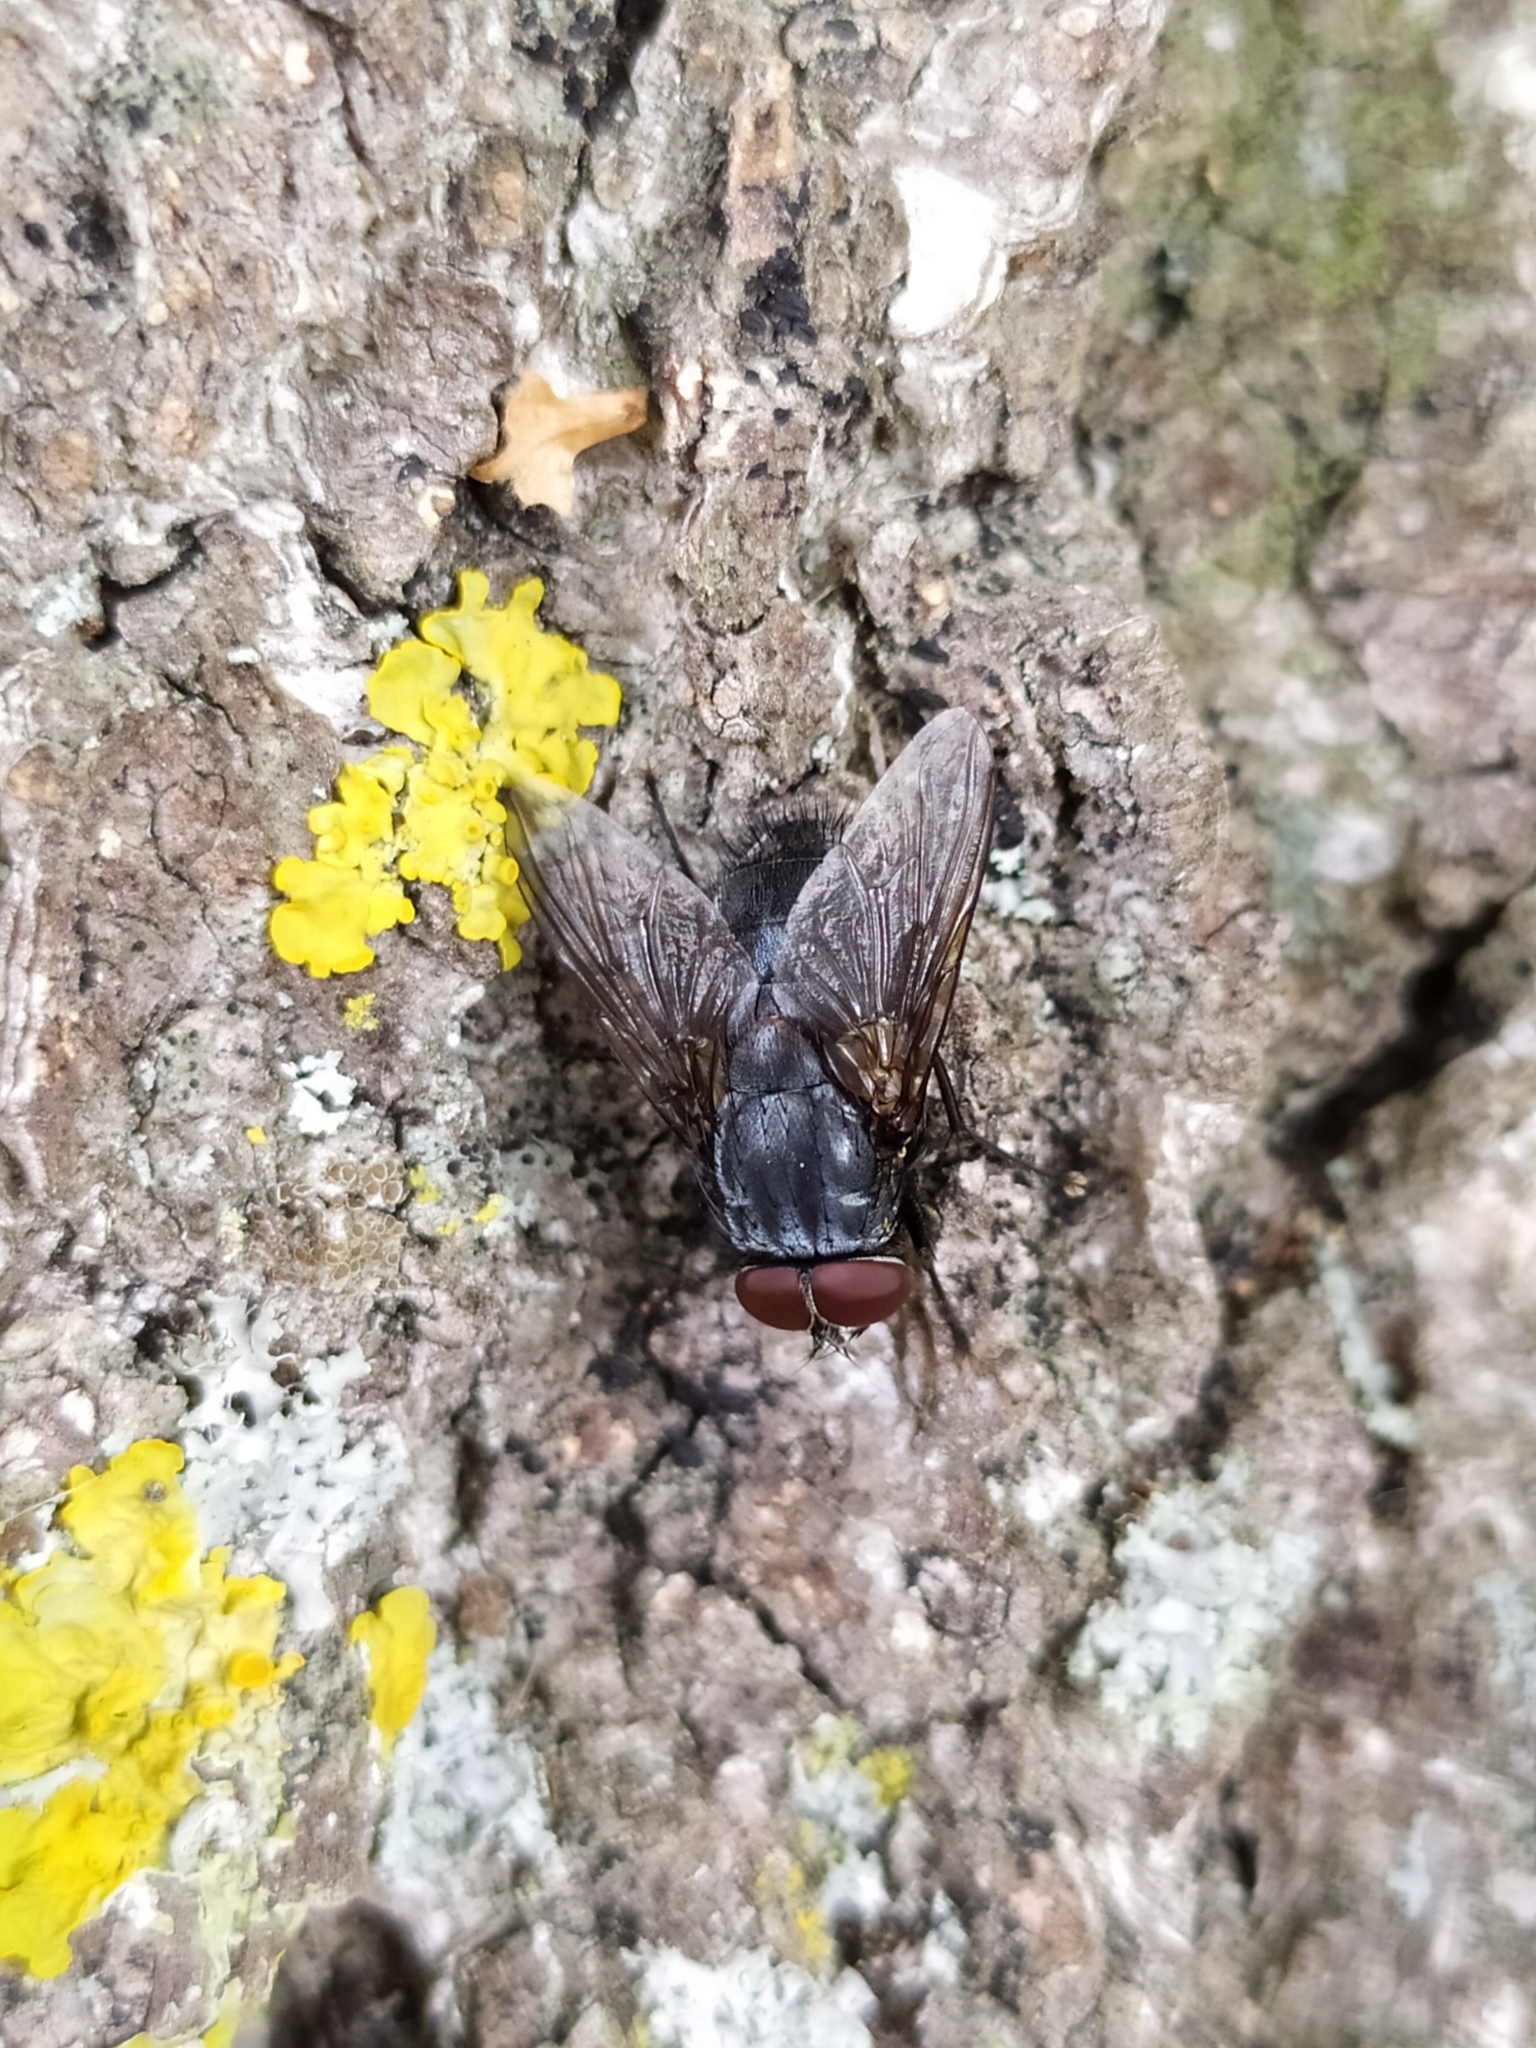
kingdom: Animalia
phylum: Arthropoda
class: Insecta
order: Diptera
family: Muscidae
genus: Muscina
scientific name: Muscina pascuorum
